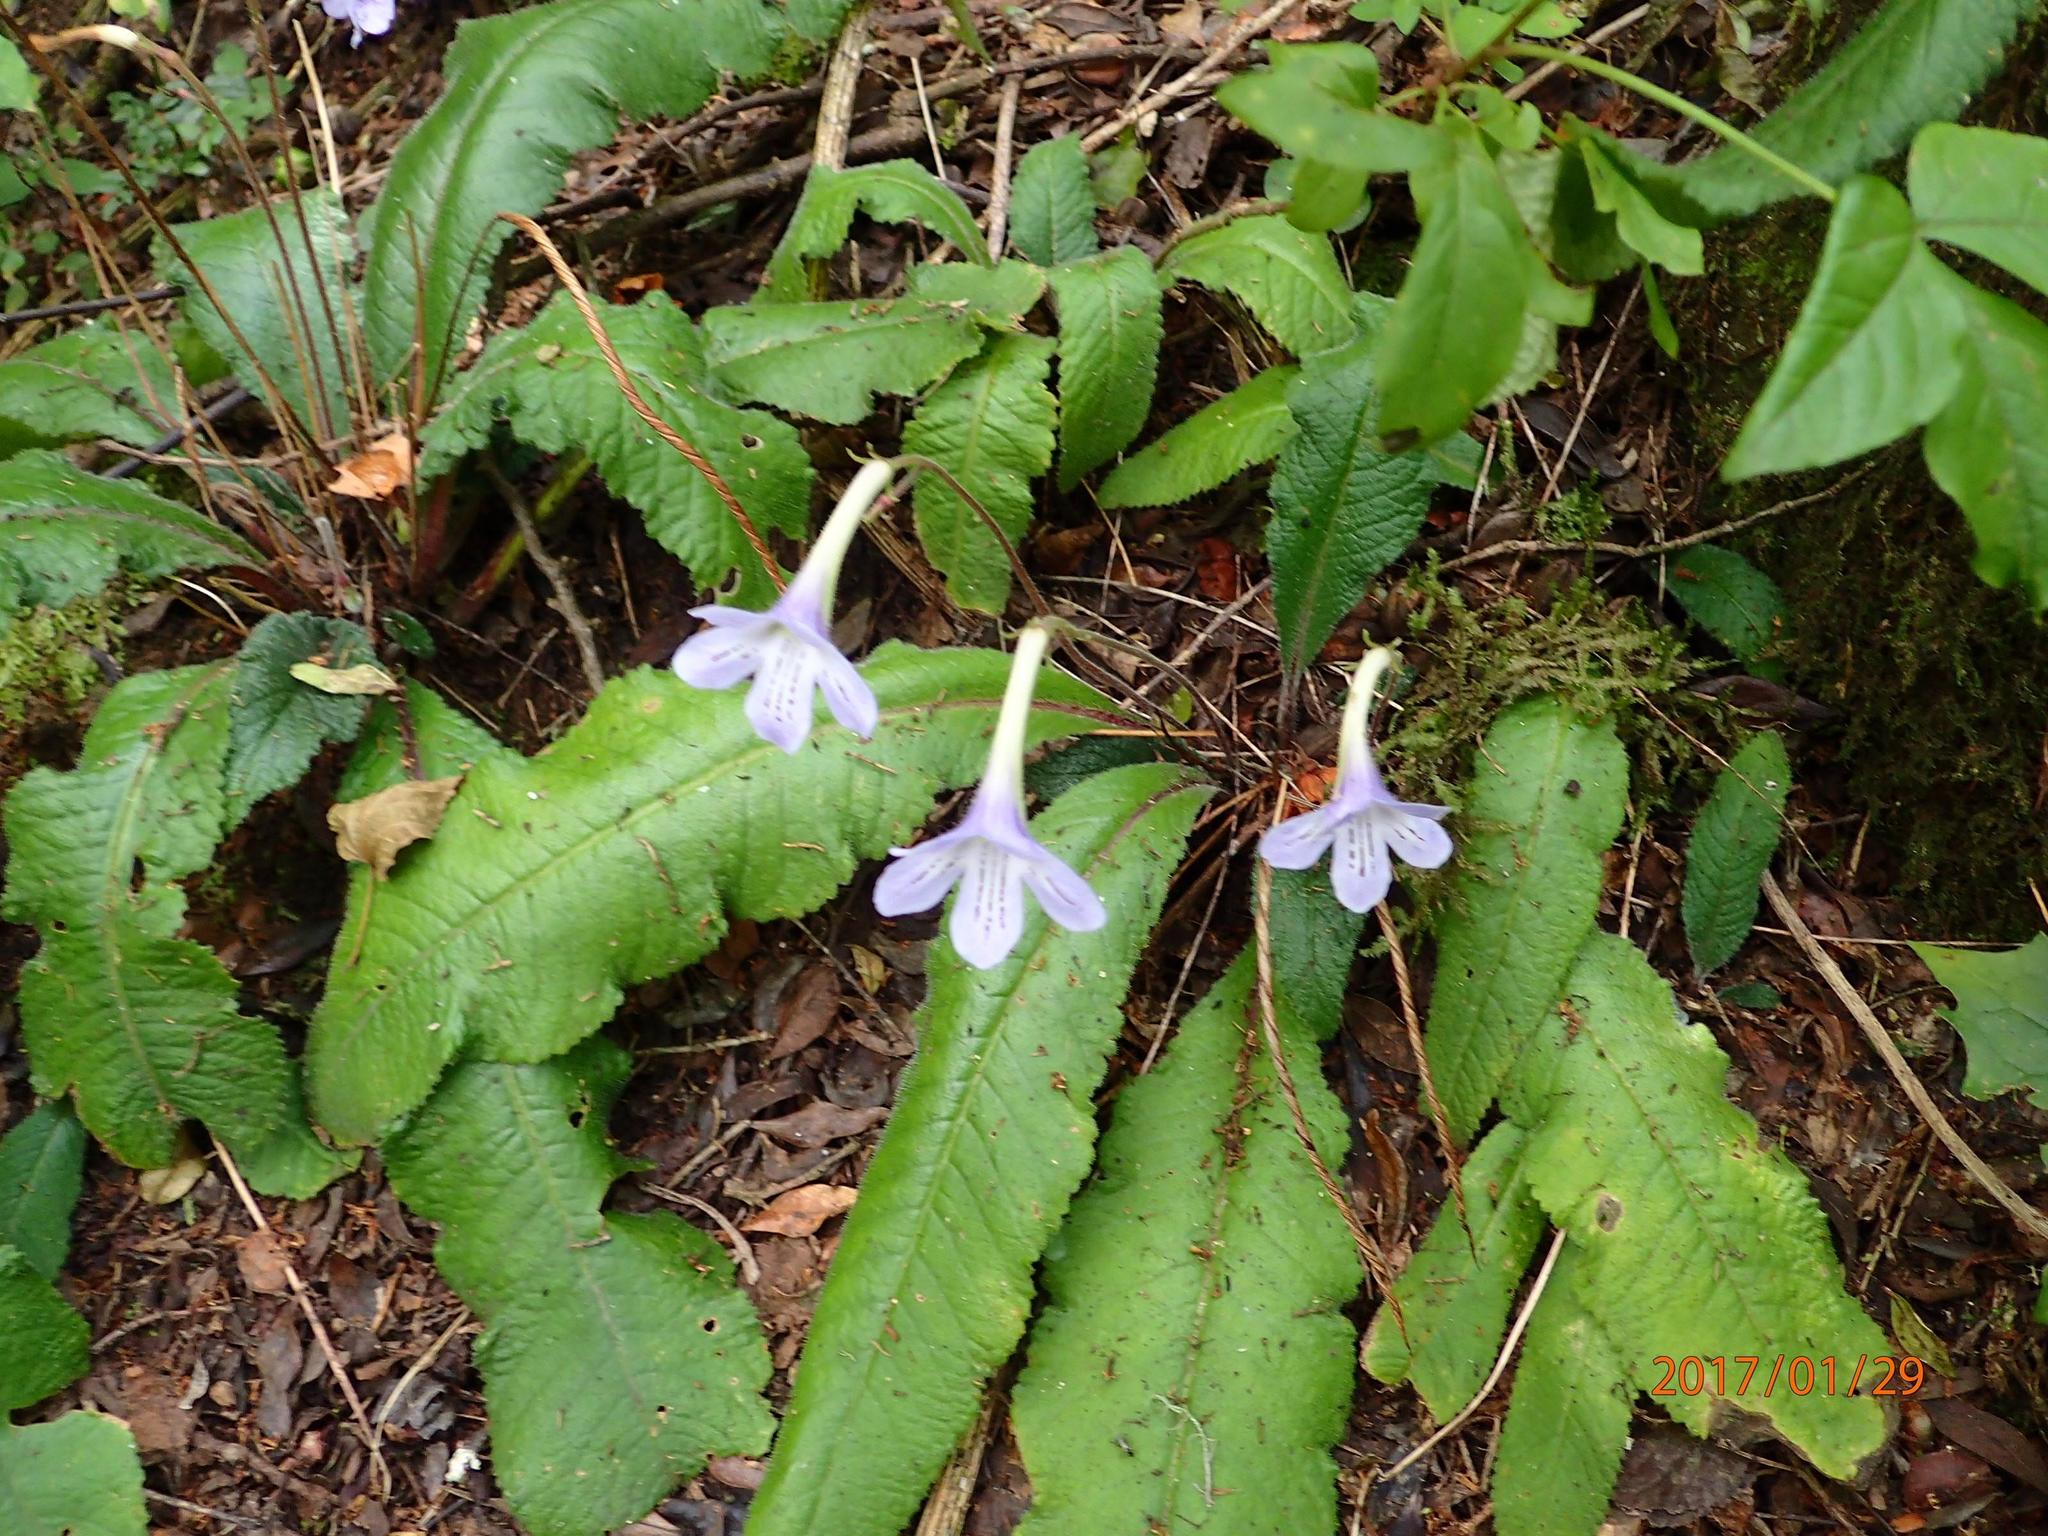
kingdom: Plantae
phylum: Tracheophyta
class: Magnoliopsida
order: Lamiales
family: Gesneriaceae
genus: Streptocarpus
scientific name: Streptocarpus gardenii
